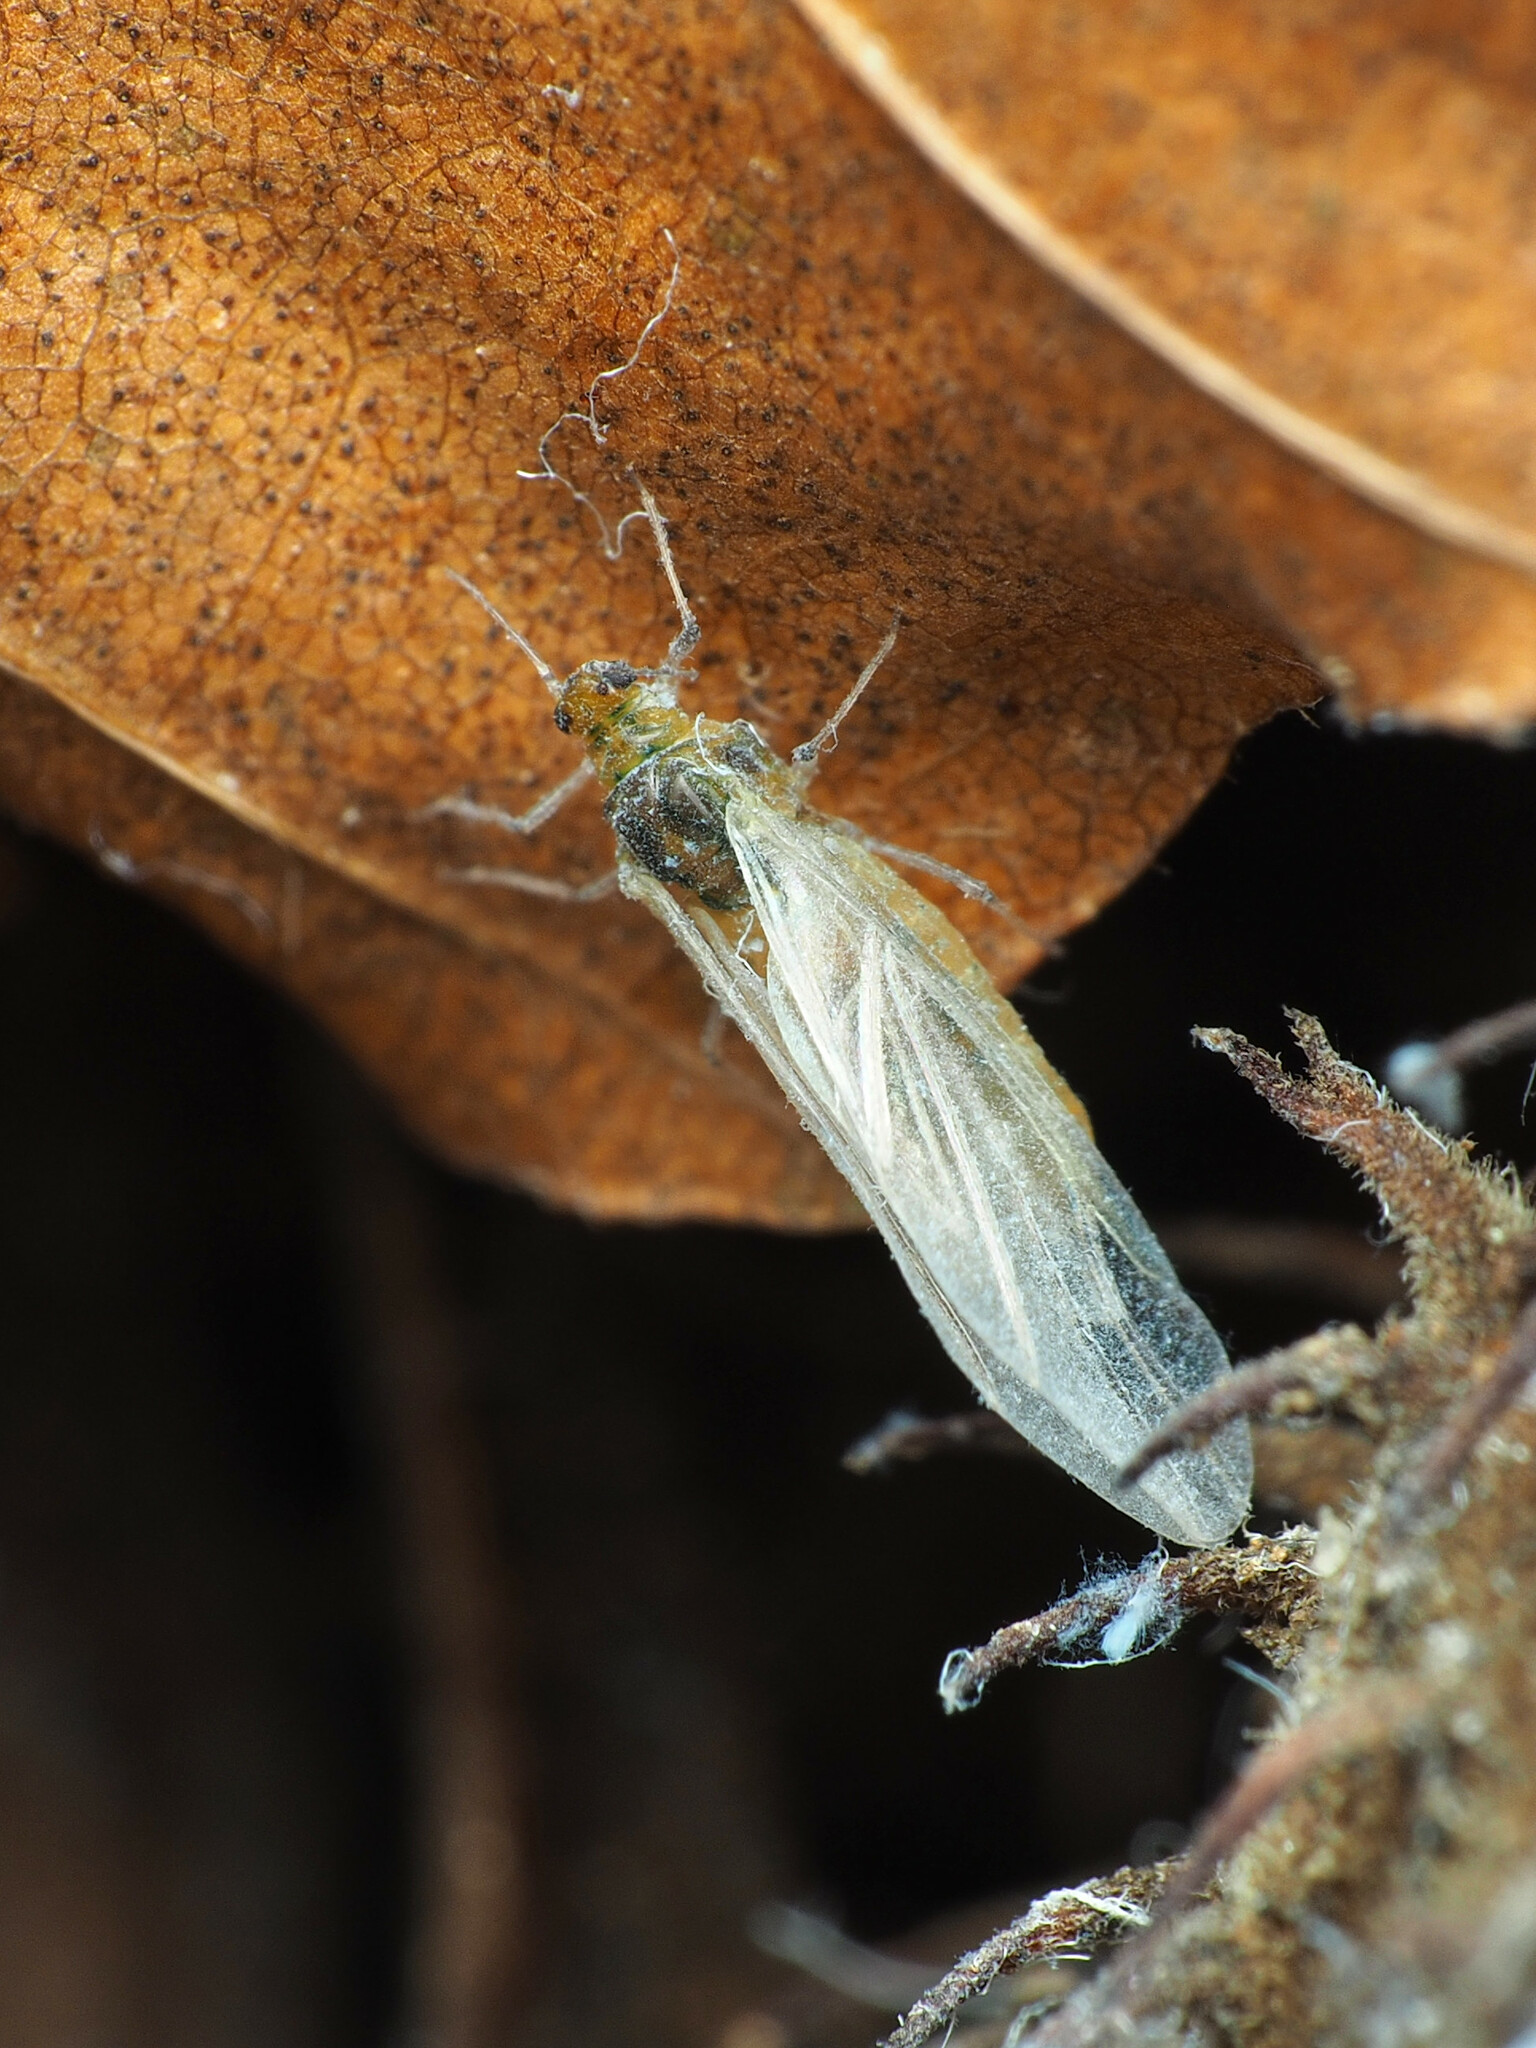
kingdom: Animalia
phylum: Arthropoda
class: Insecta
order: Hemiptera
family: Aphididae
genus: Grylloprociphilus
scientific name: Grylloprociphilus imbricator
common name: Beech blight aphid
